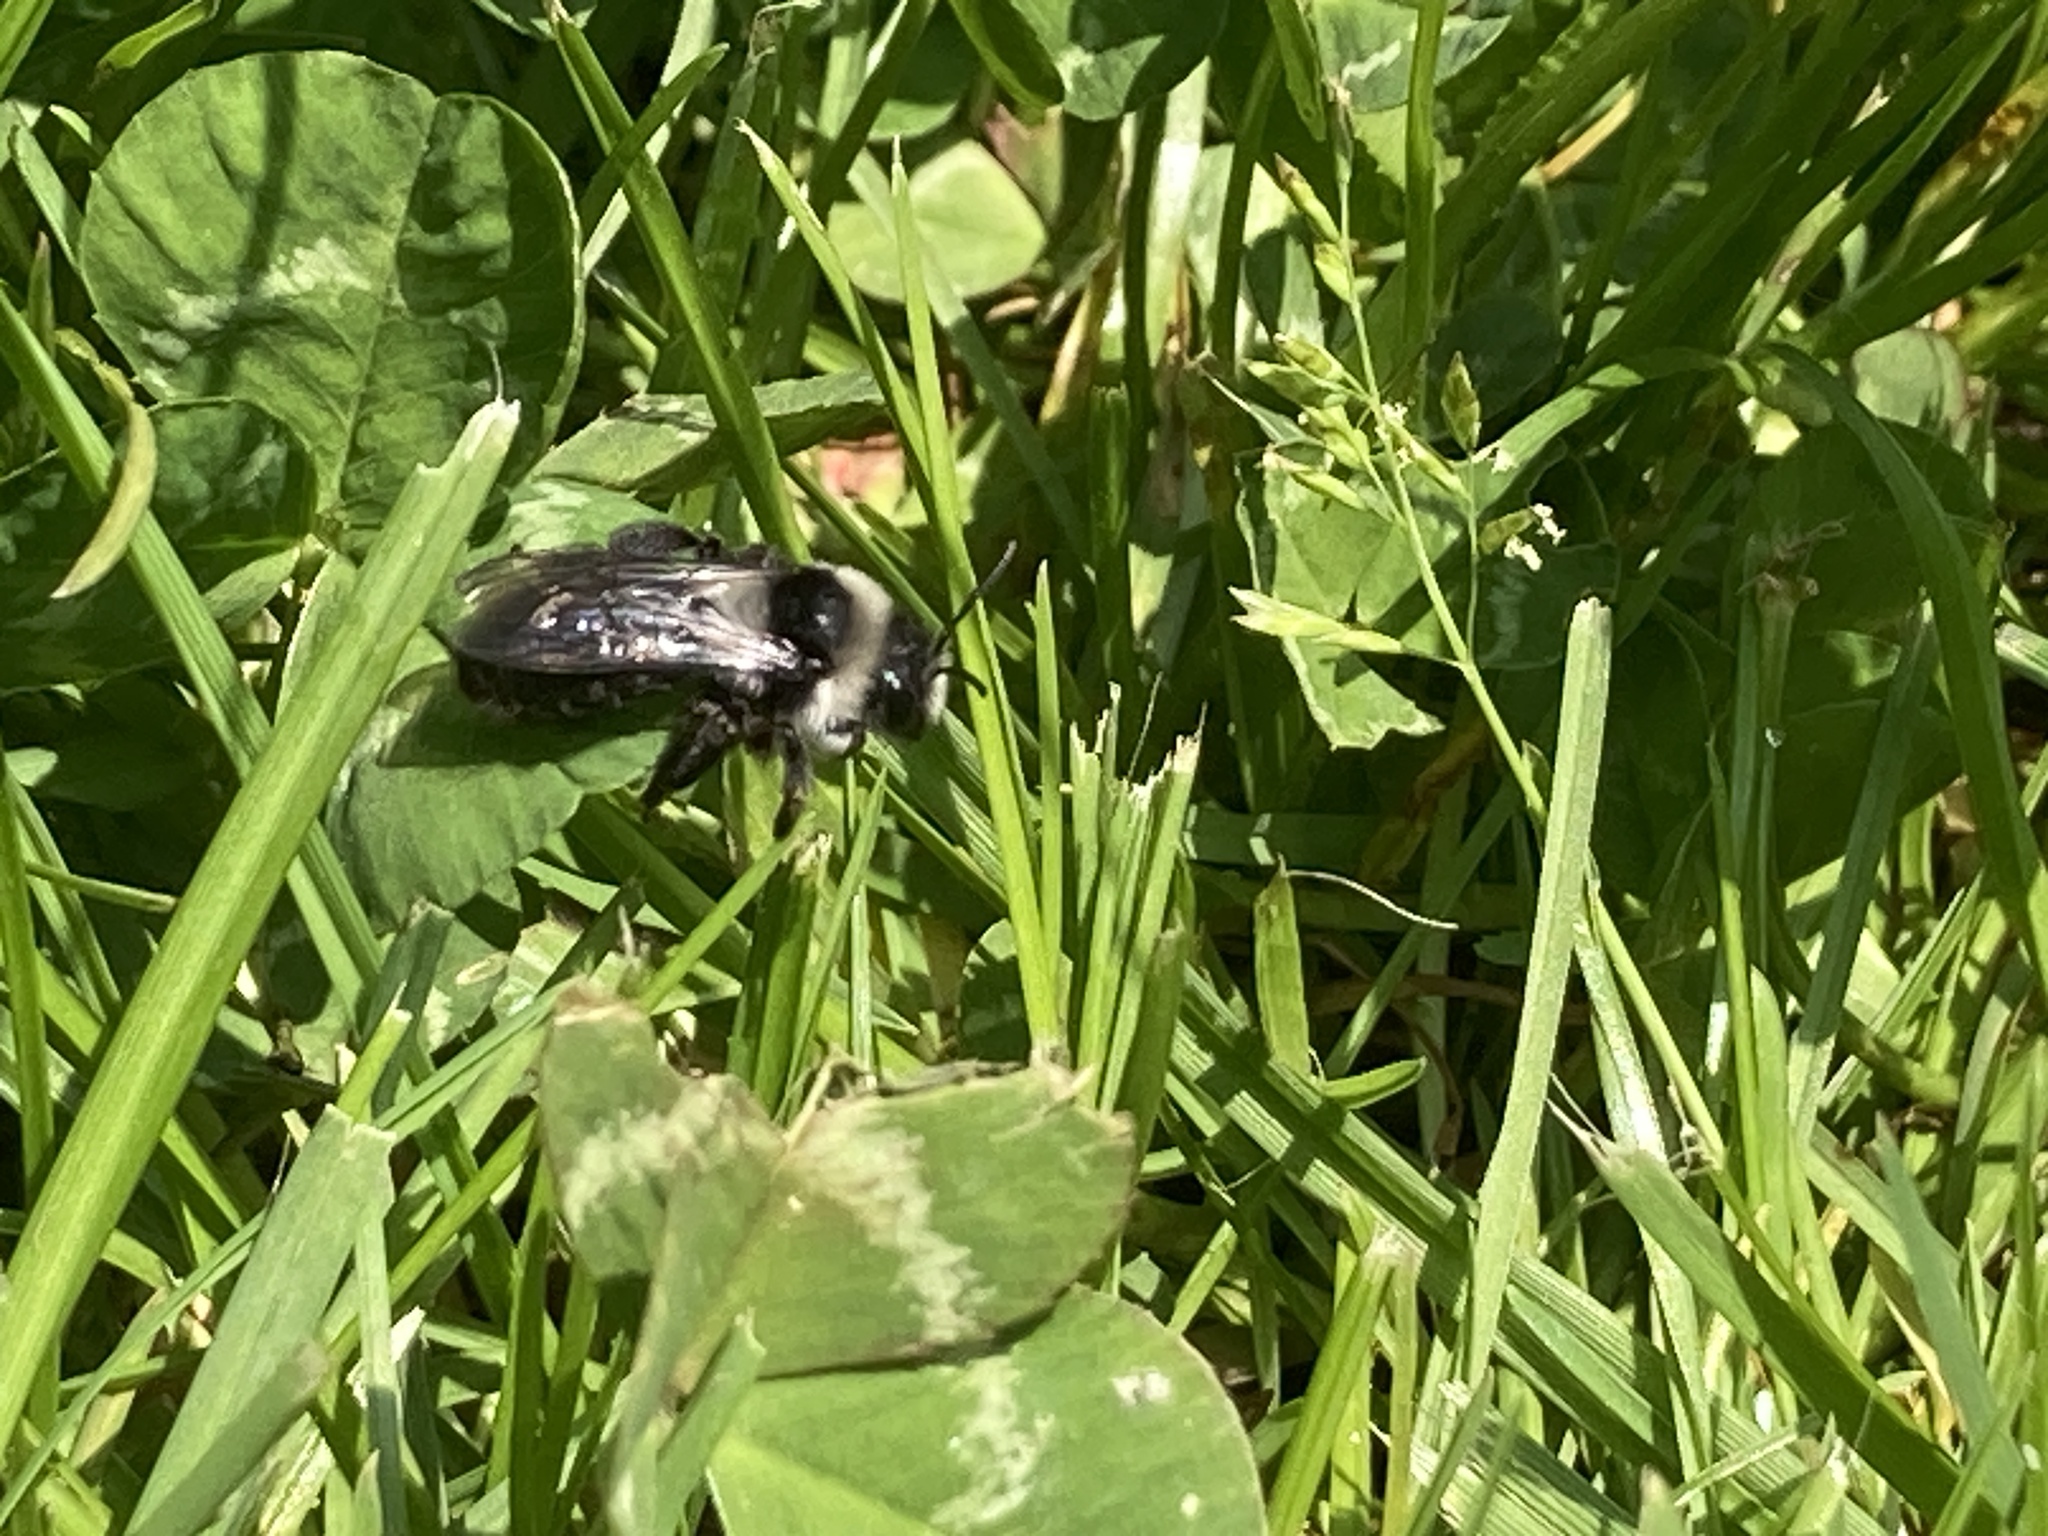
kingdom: Animalia
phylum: Arthropoda
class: Insecta
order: Hymenoptera
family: Andrenidae
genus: Andrena
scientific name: Andrena cineraria
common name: Ashy mining bee
